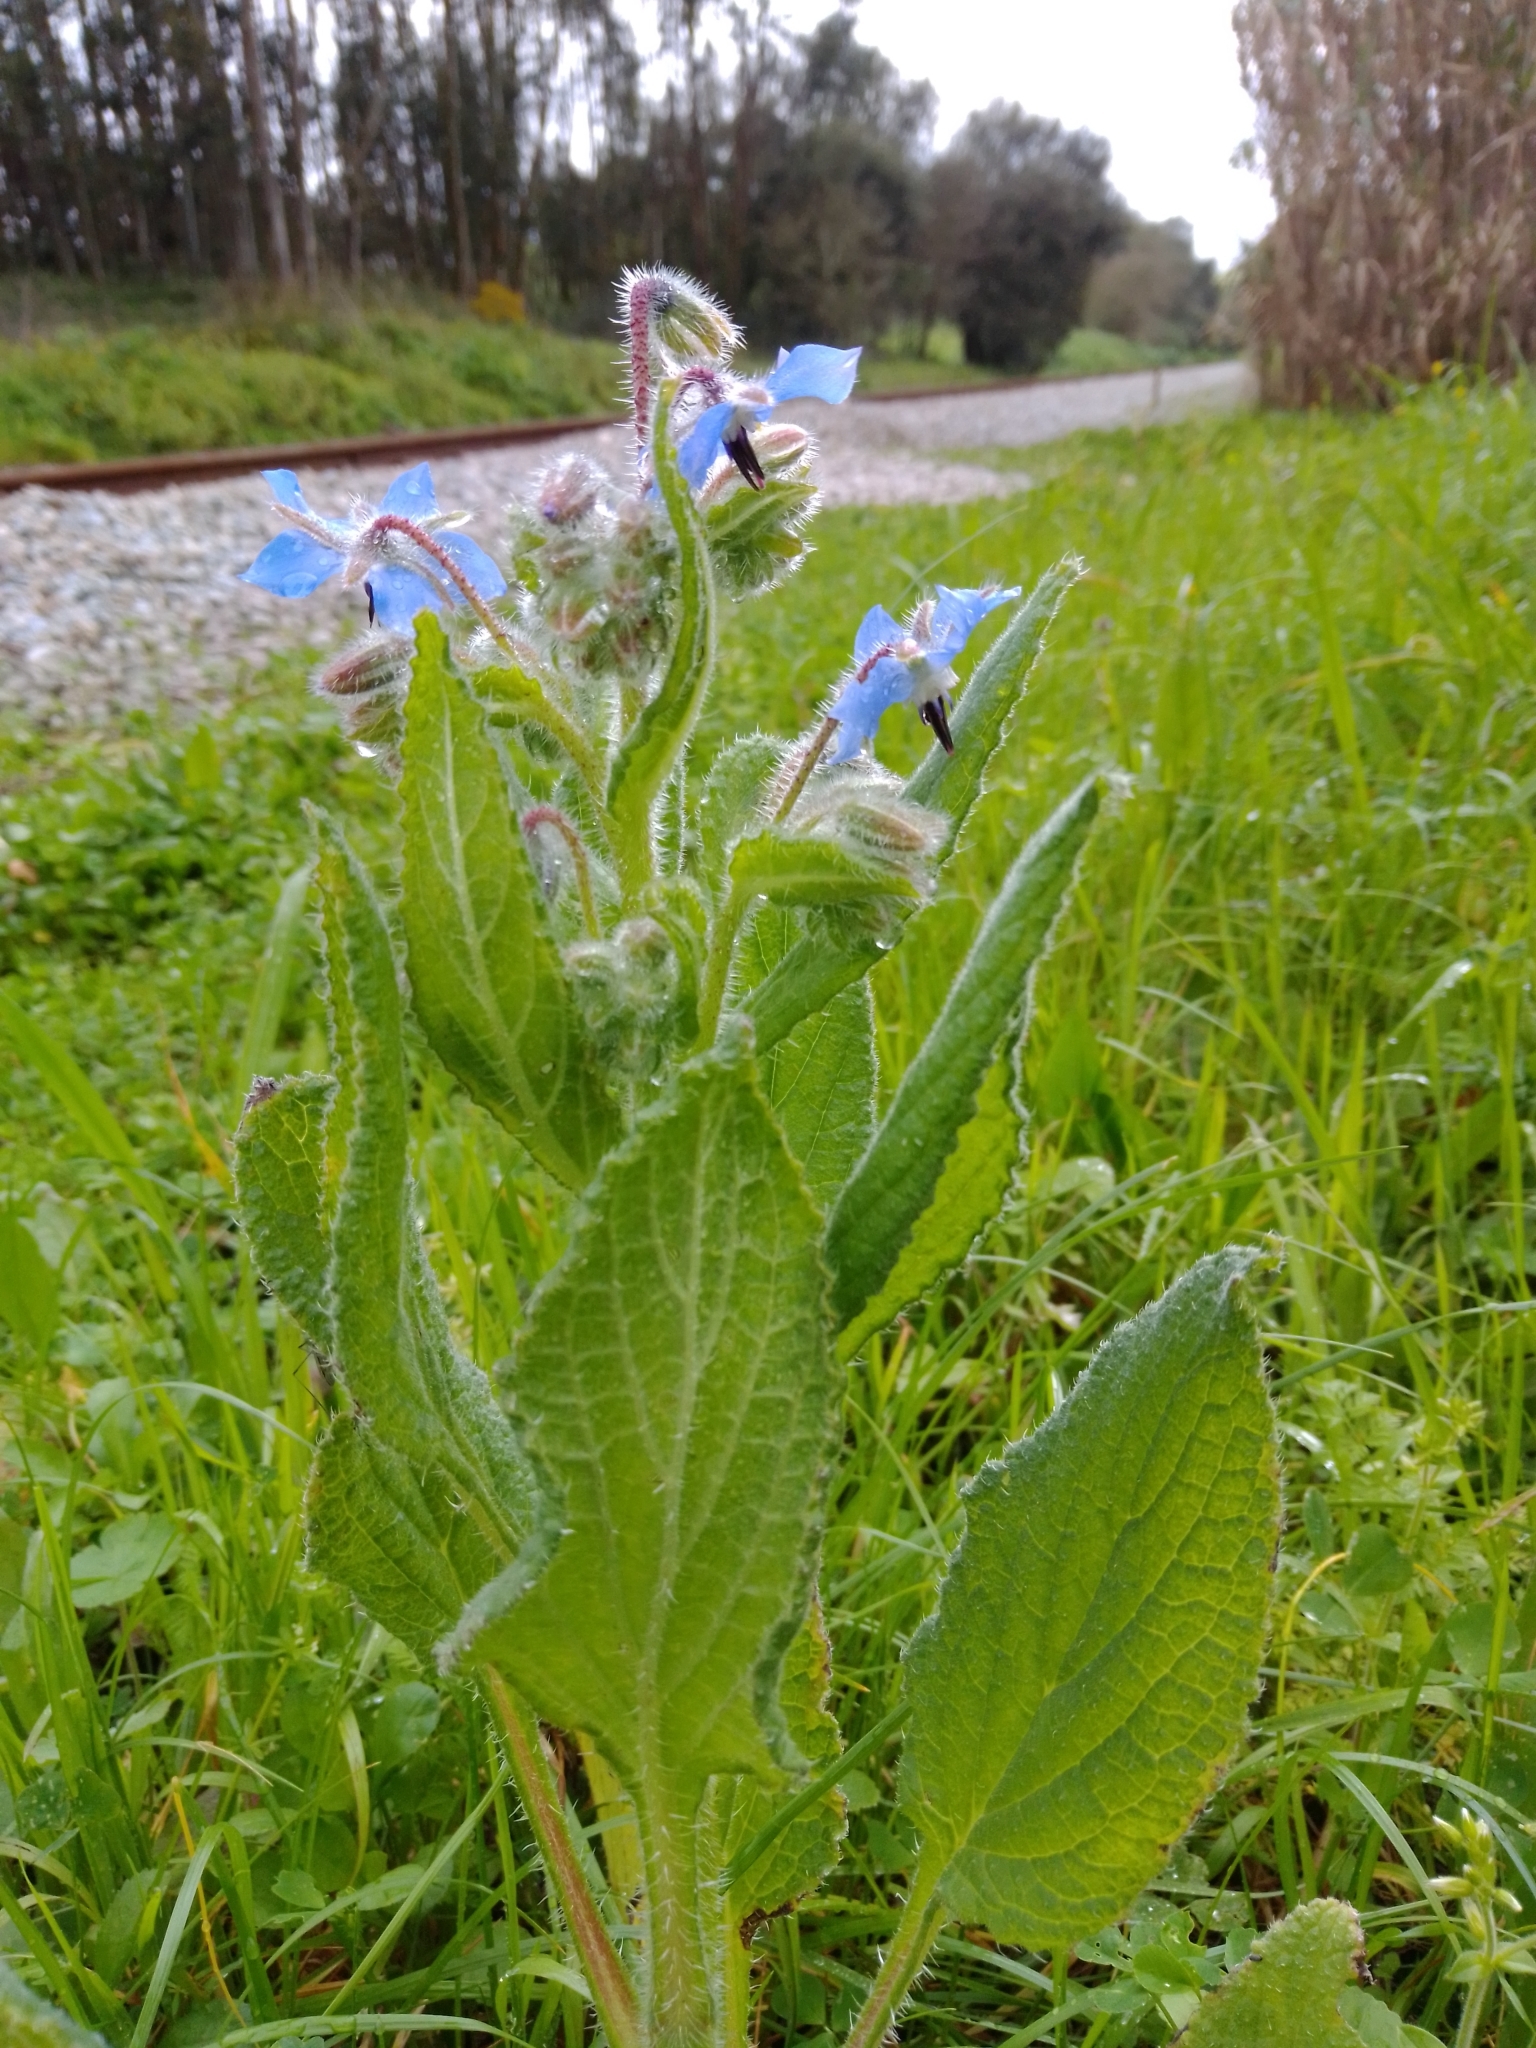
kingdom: Plantae
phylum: Tracheophyta
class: Magnoliopsida
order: Boraginales
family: Boraginaceae
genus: Borago
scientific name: Borago officinalis
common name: Borage
